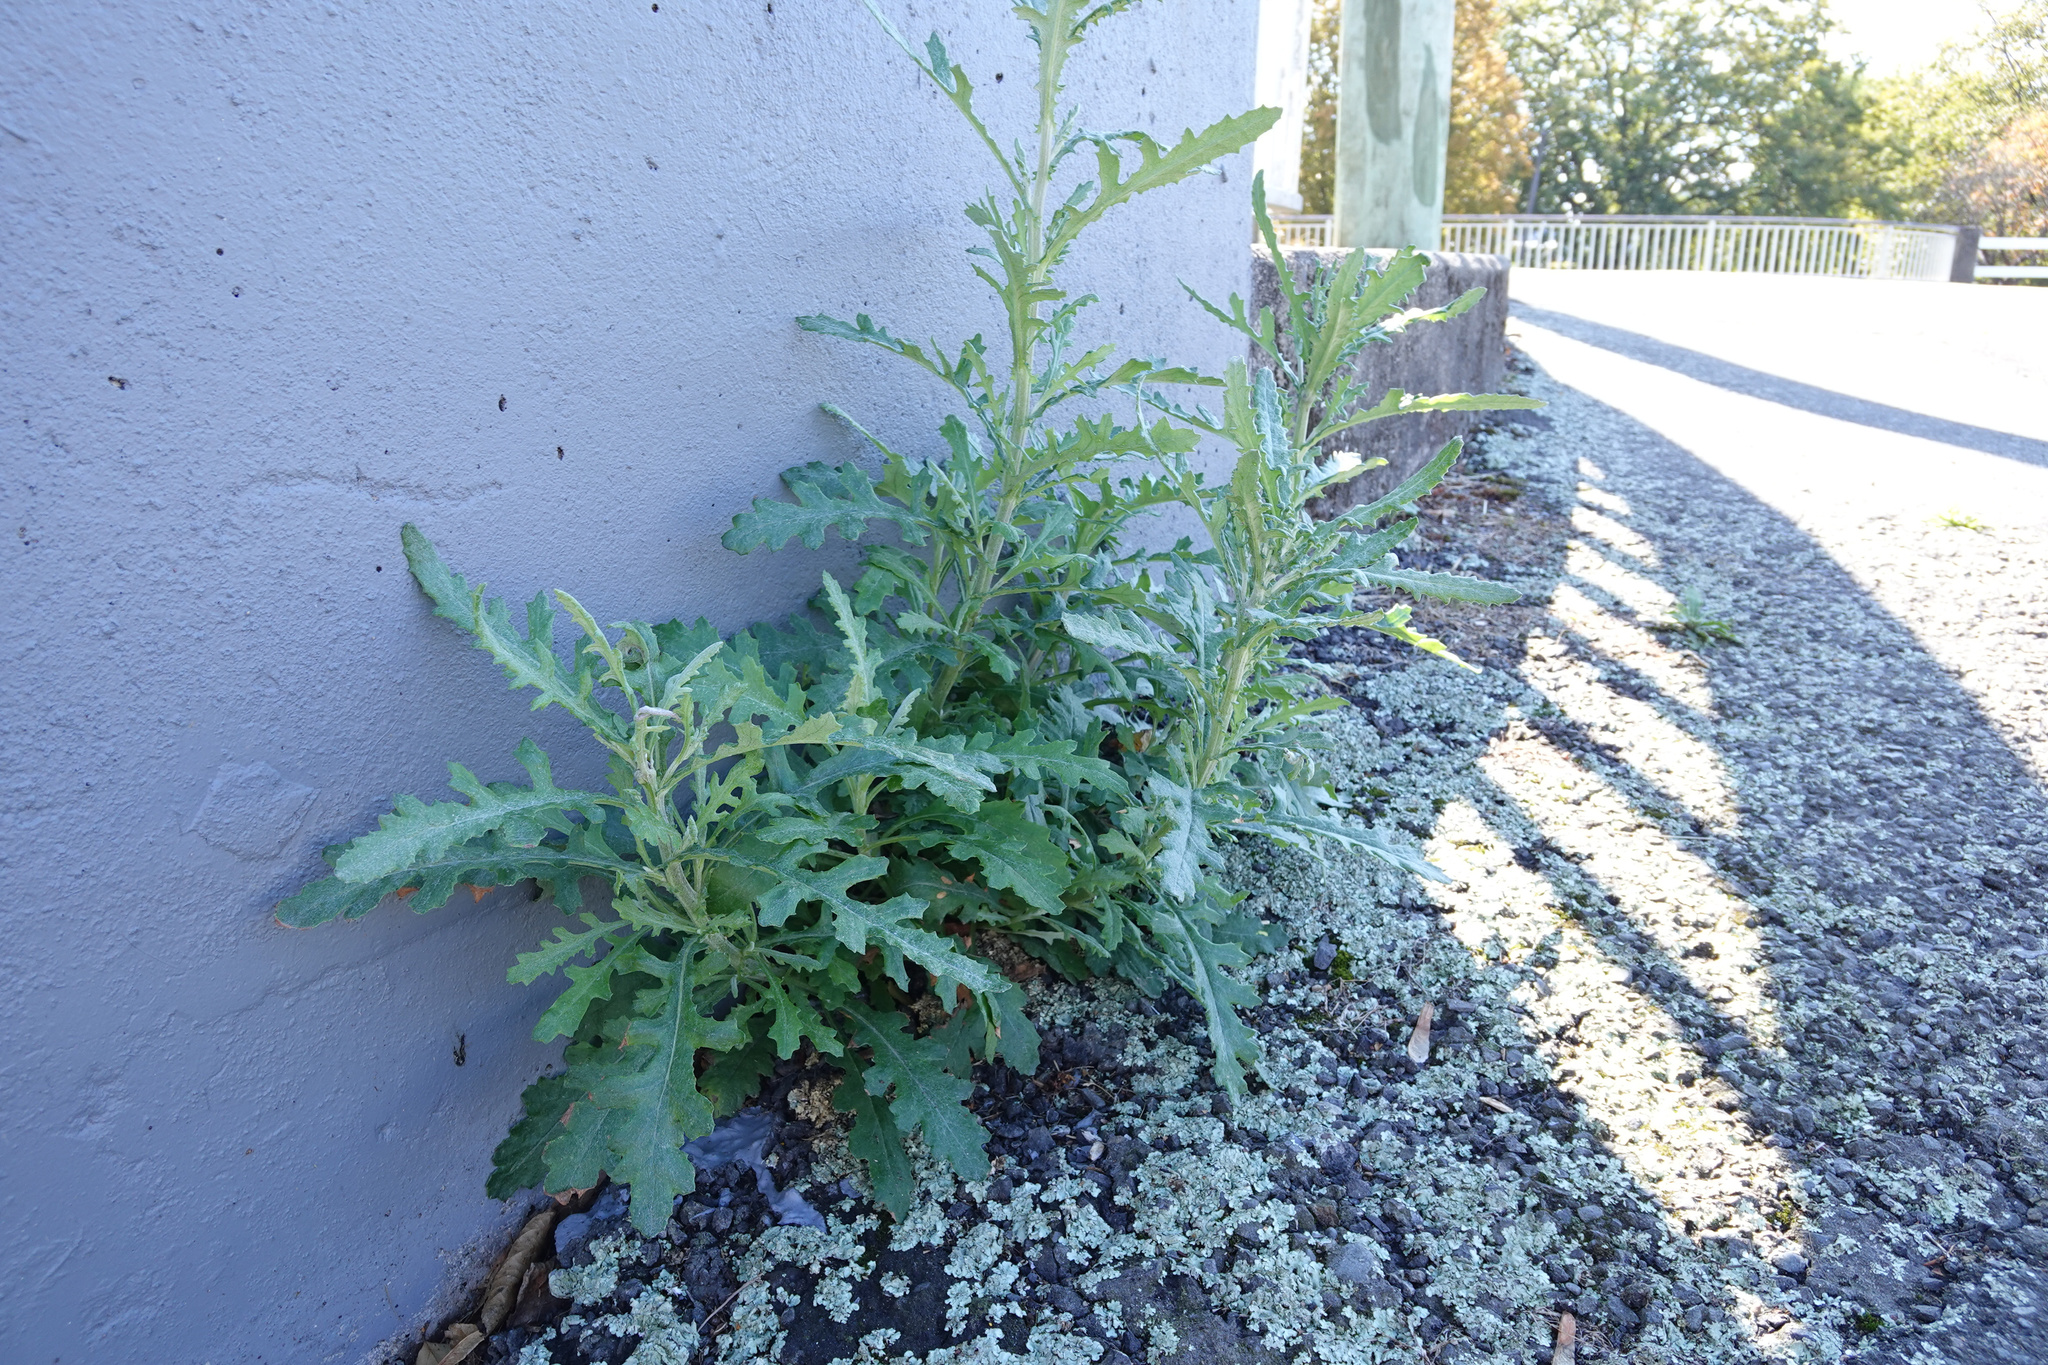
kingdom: Plantae
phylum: Tracheophyta
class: Magnoliopsida
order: Asterales
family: Asteraceae
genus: Senecio
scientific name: Senecio glomeratus
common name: Cutleaf burnweed
